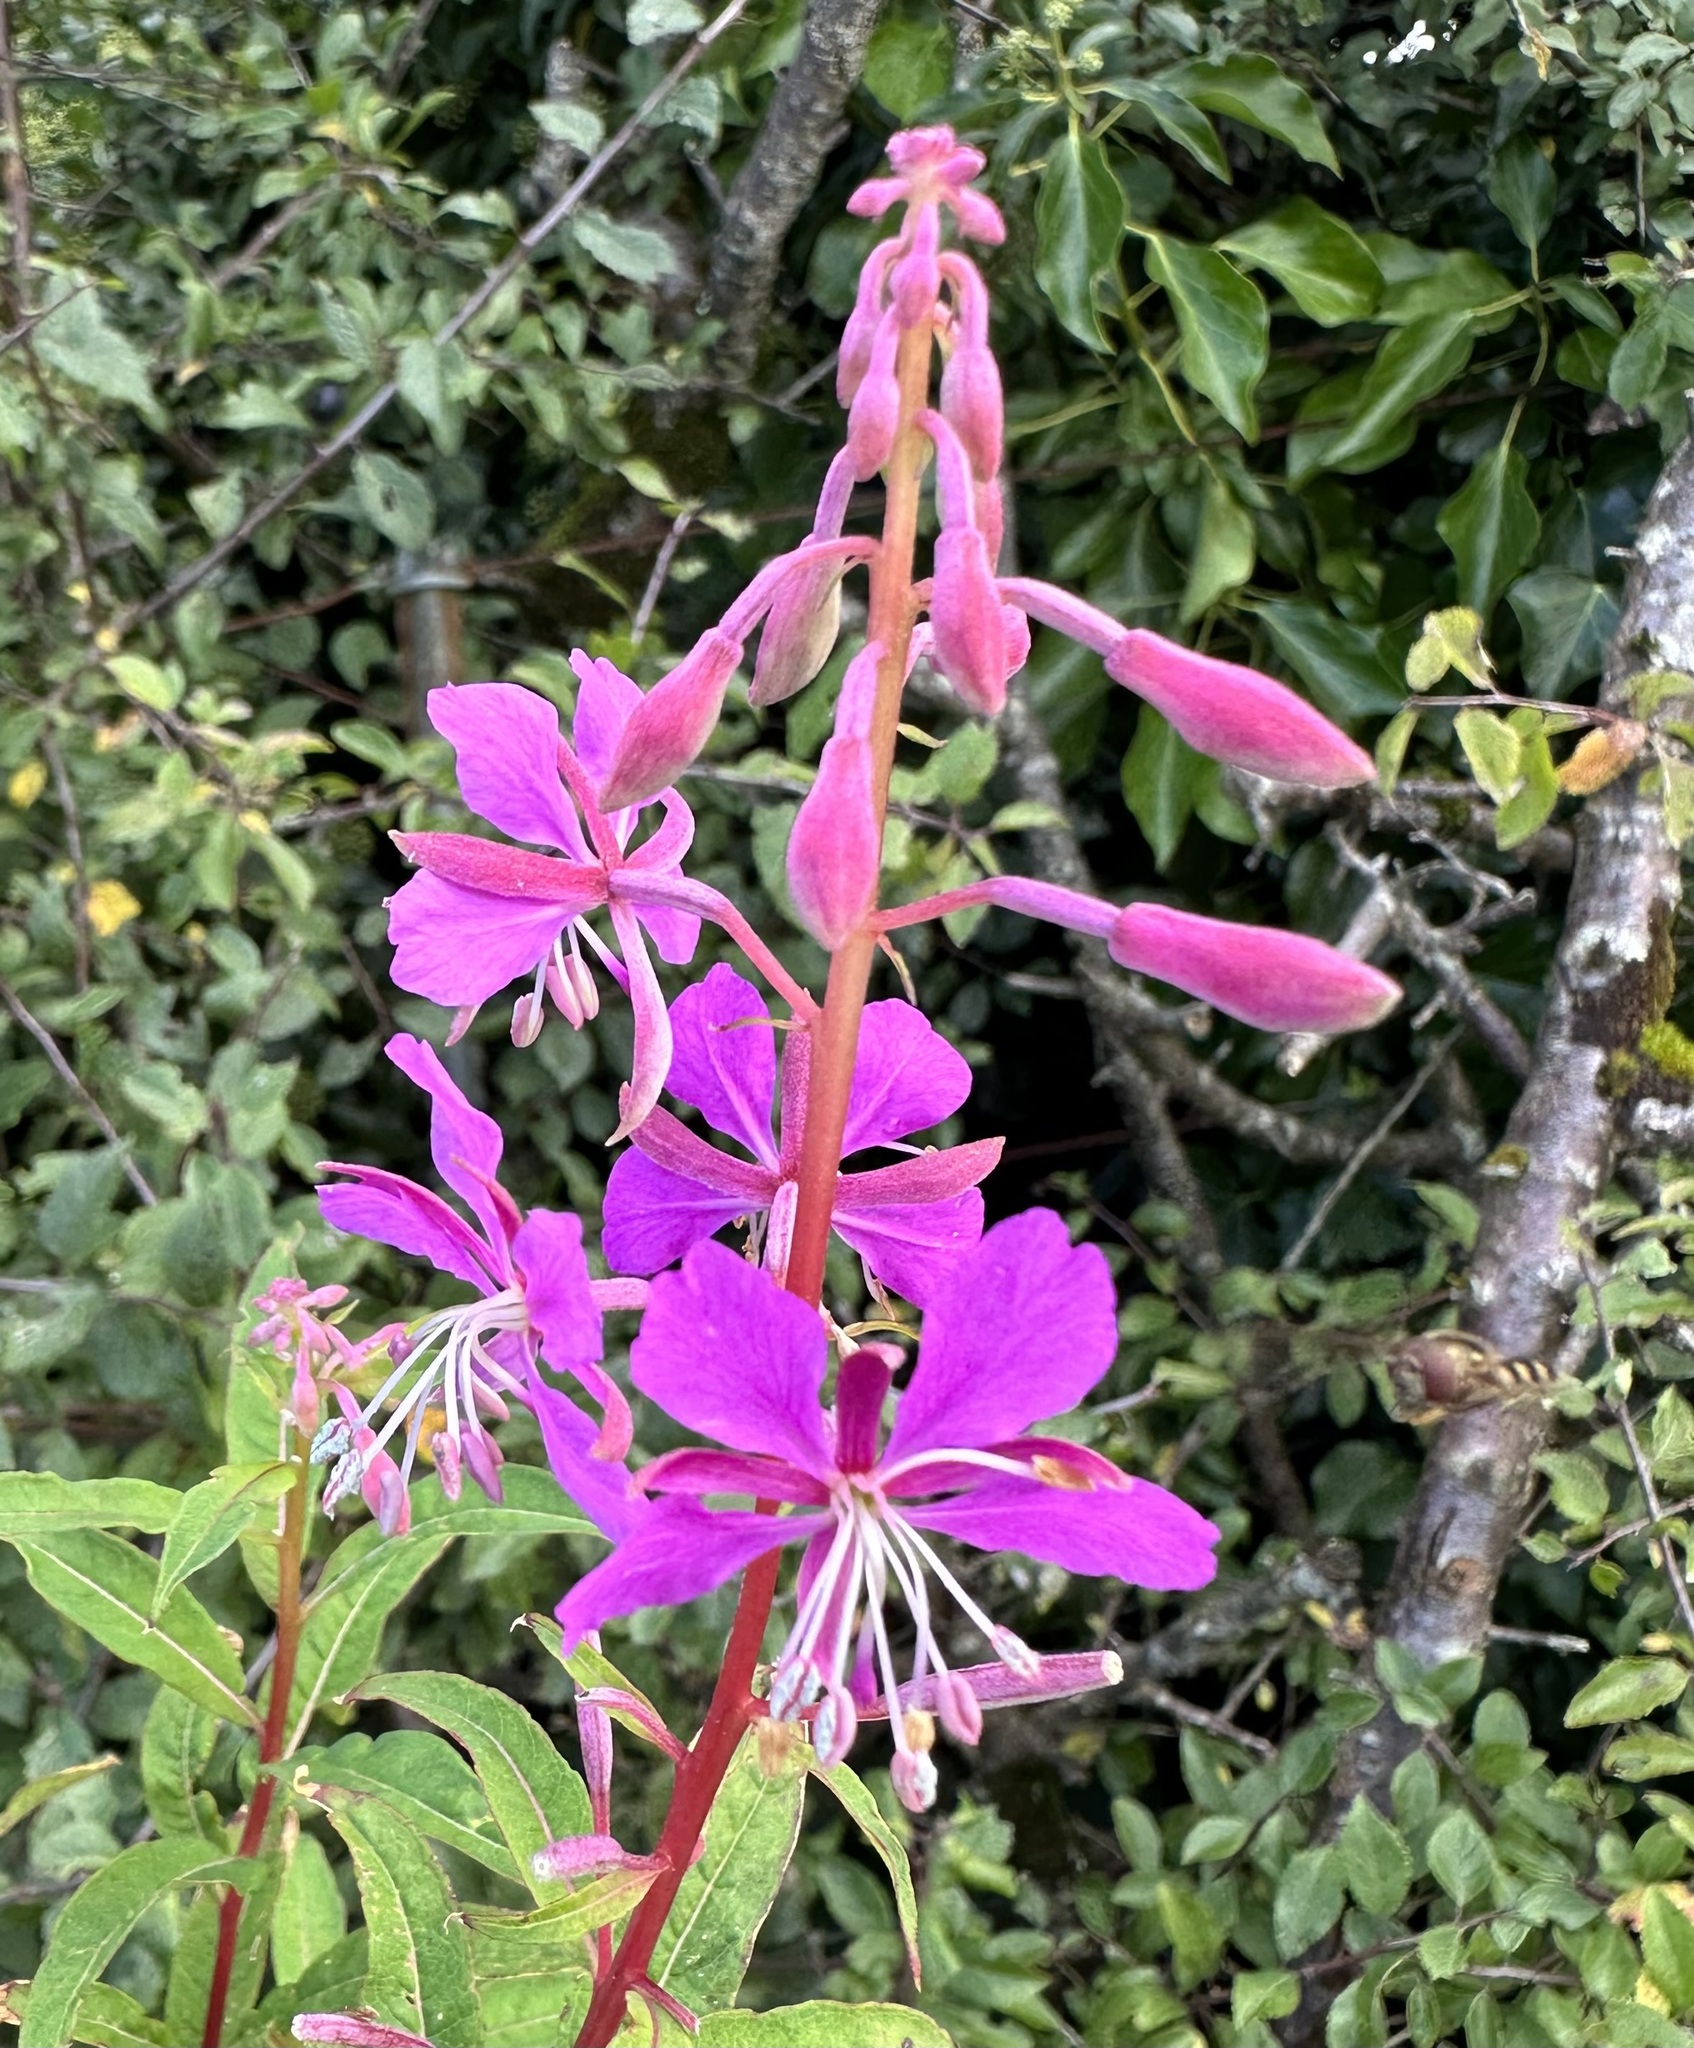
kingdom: Plantae
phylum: Tracheophyta
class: Magnoliopsida
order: Myrtales
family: Onagraceae
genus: Chamaenerion
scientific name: Chamaenerion angustifolium
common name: Fireweed
